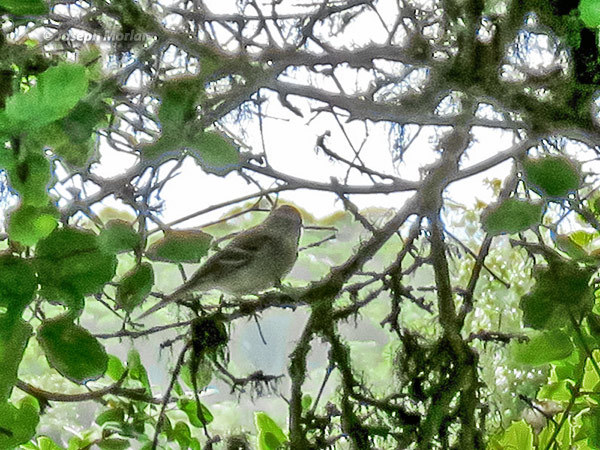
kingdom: Animalia
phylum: Chordata
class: Aves
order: Passeriformes
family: Passerellidae
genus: Spizella
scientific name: Spizella passerina
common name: Chipping sparrow
